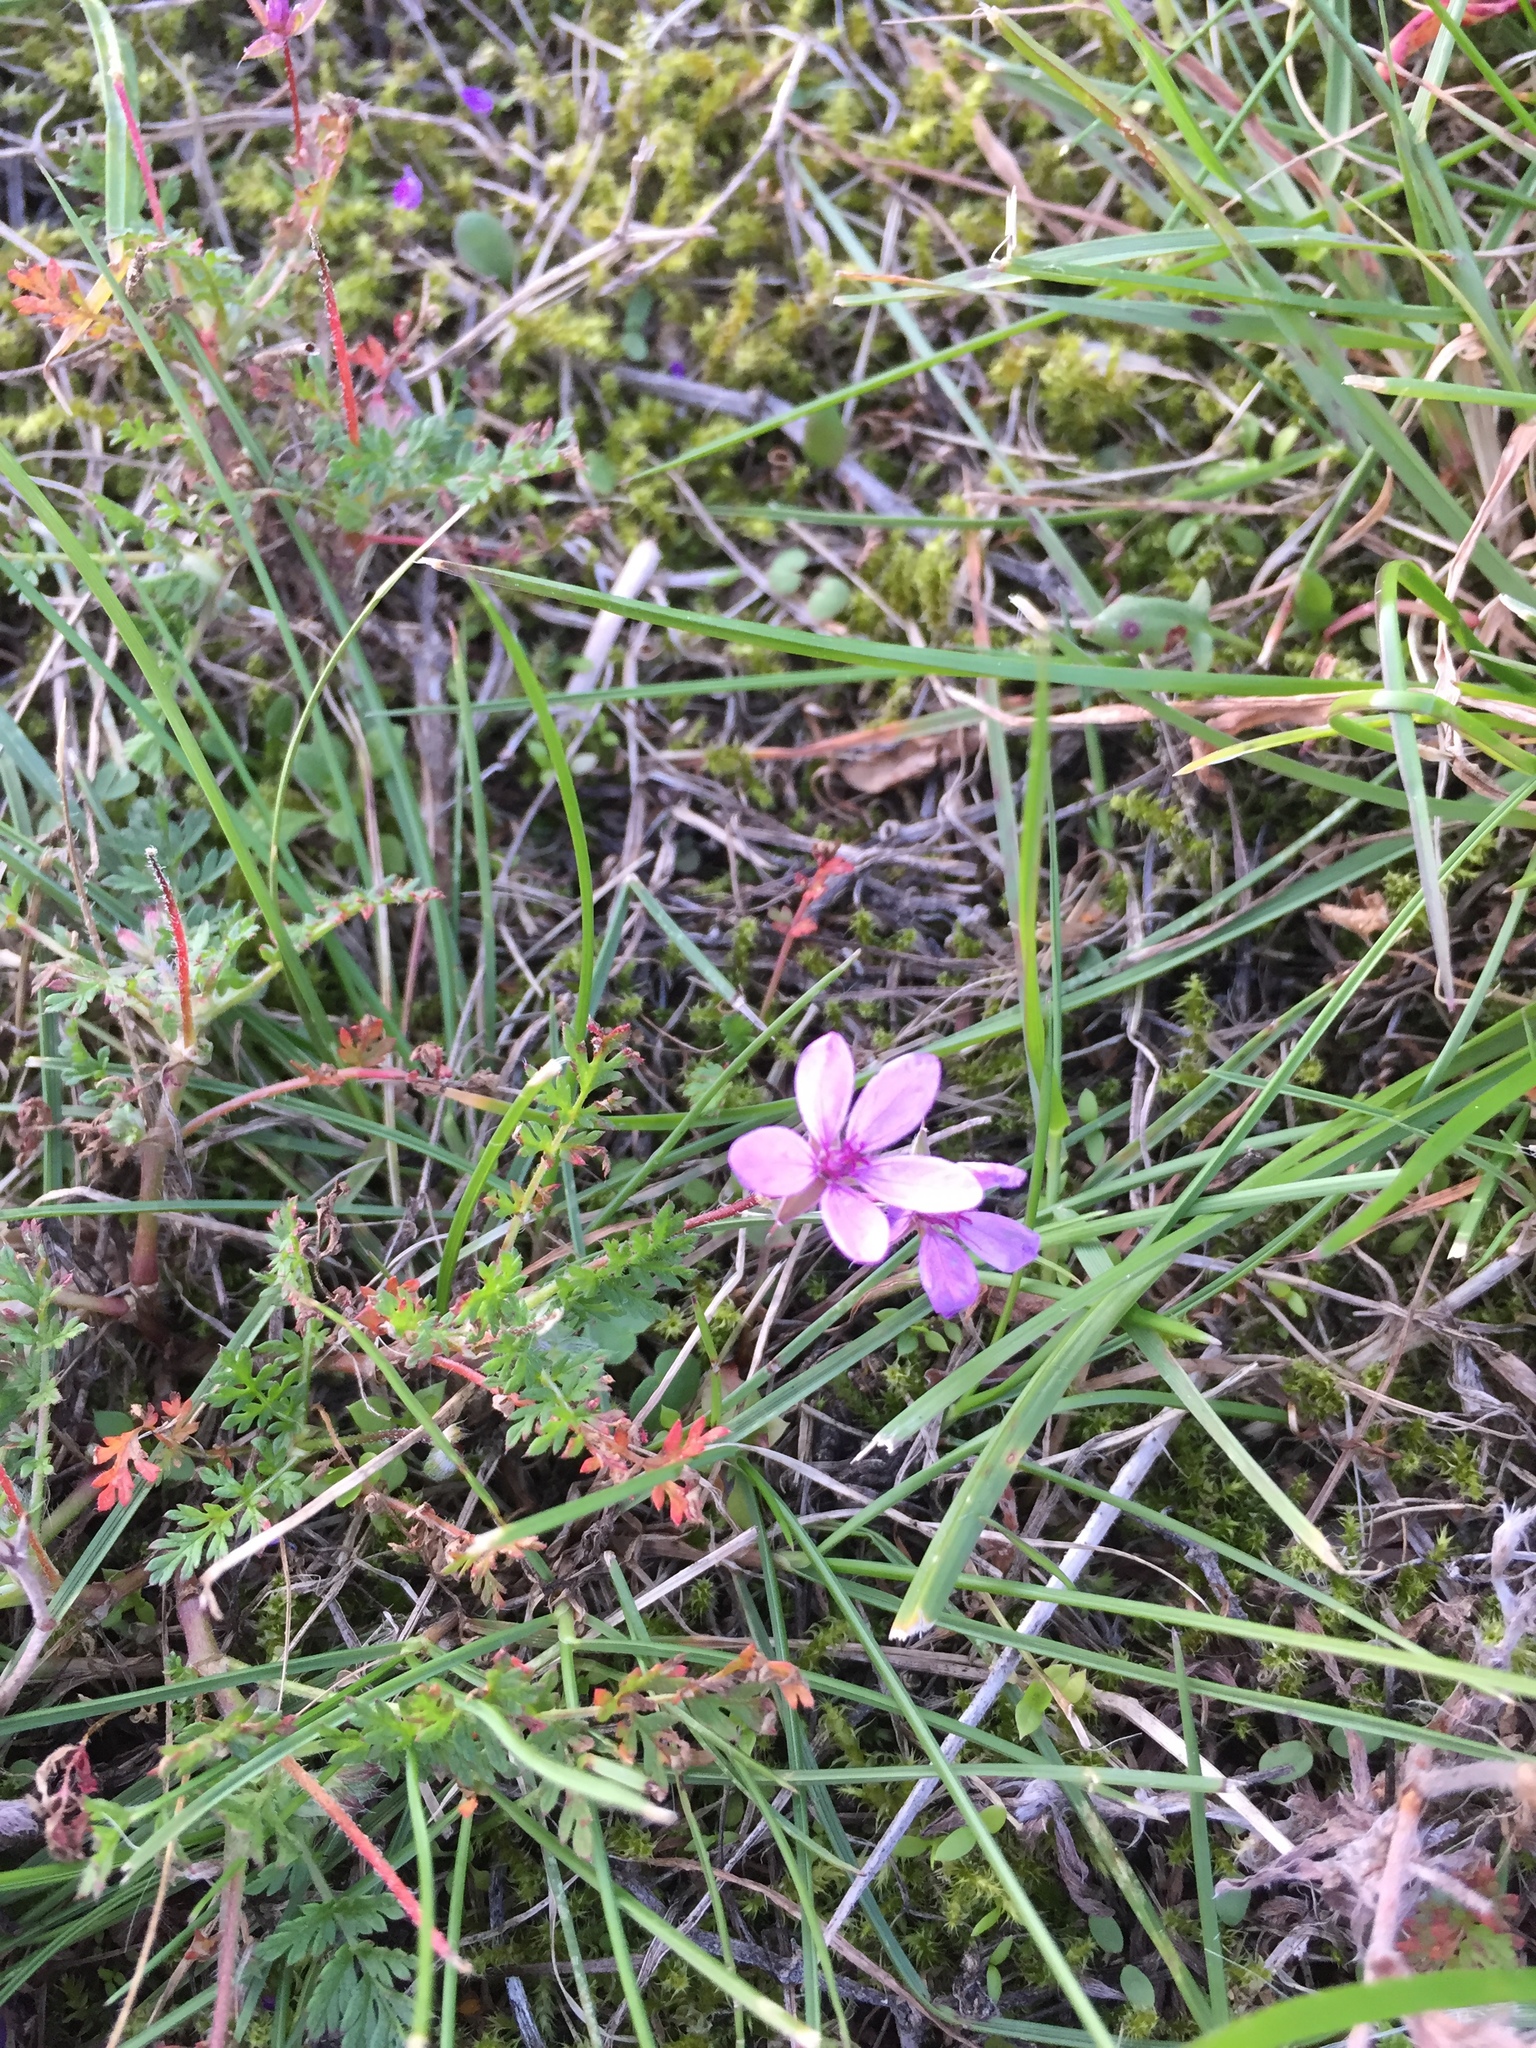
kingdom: Plantae
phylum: Tracheophyta
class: Magnoliopsida
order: Geraniales
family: Geraniaceae
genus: Erodium
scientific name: Erodium cicutarium
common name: Common stork's-bill
